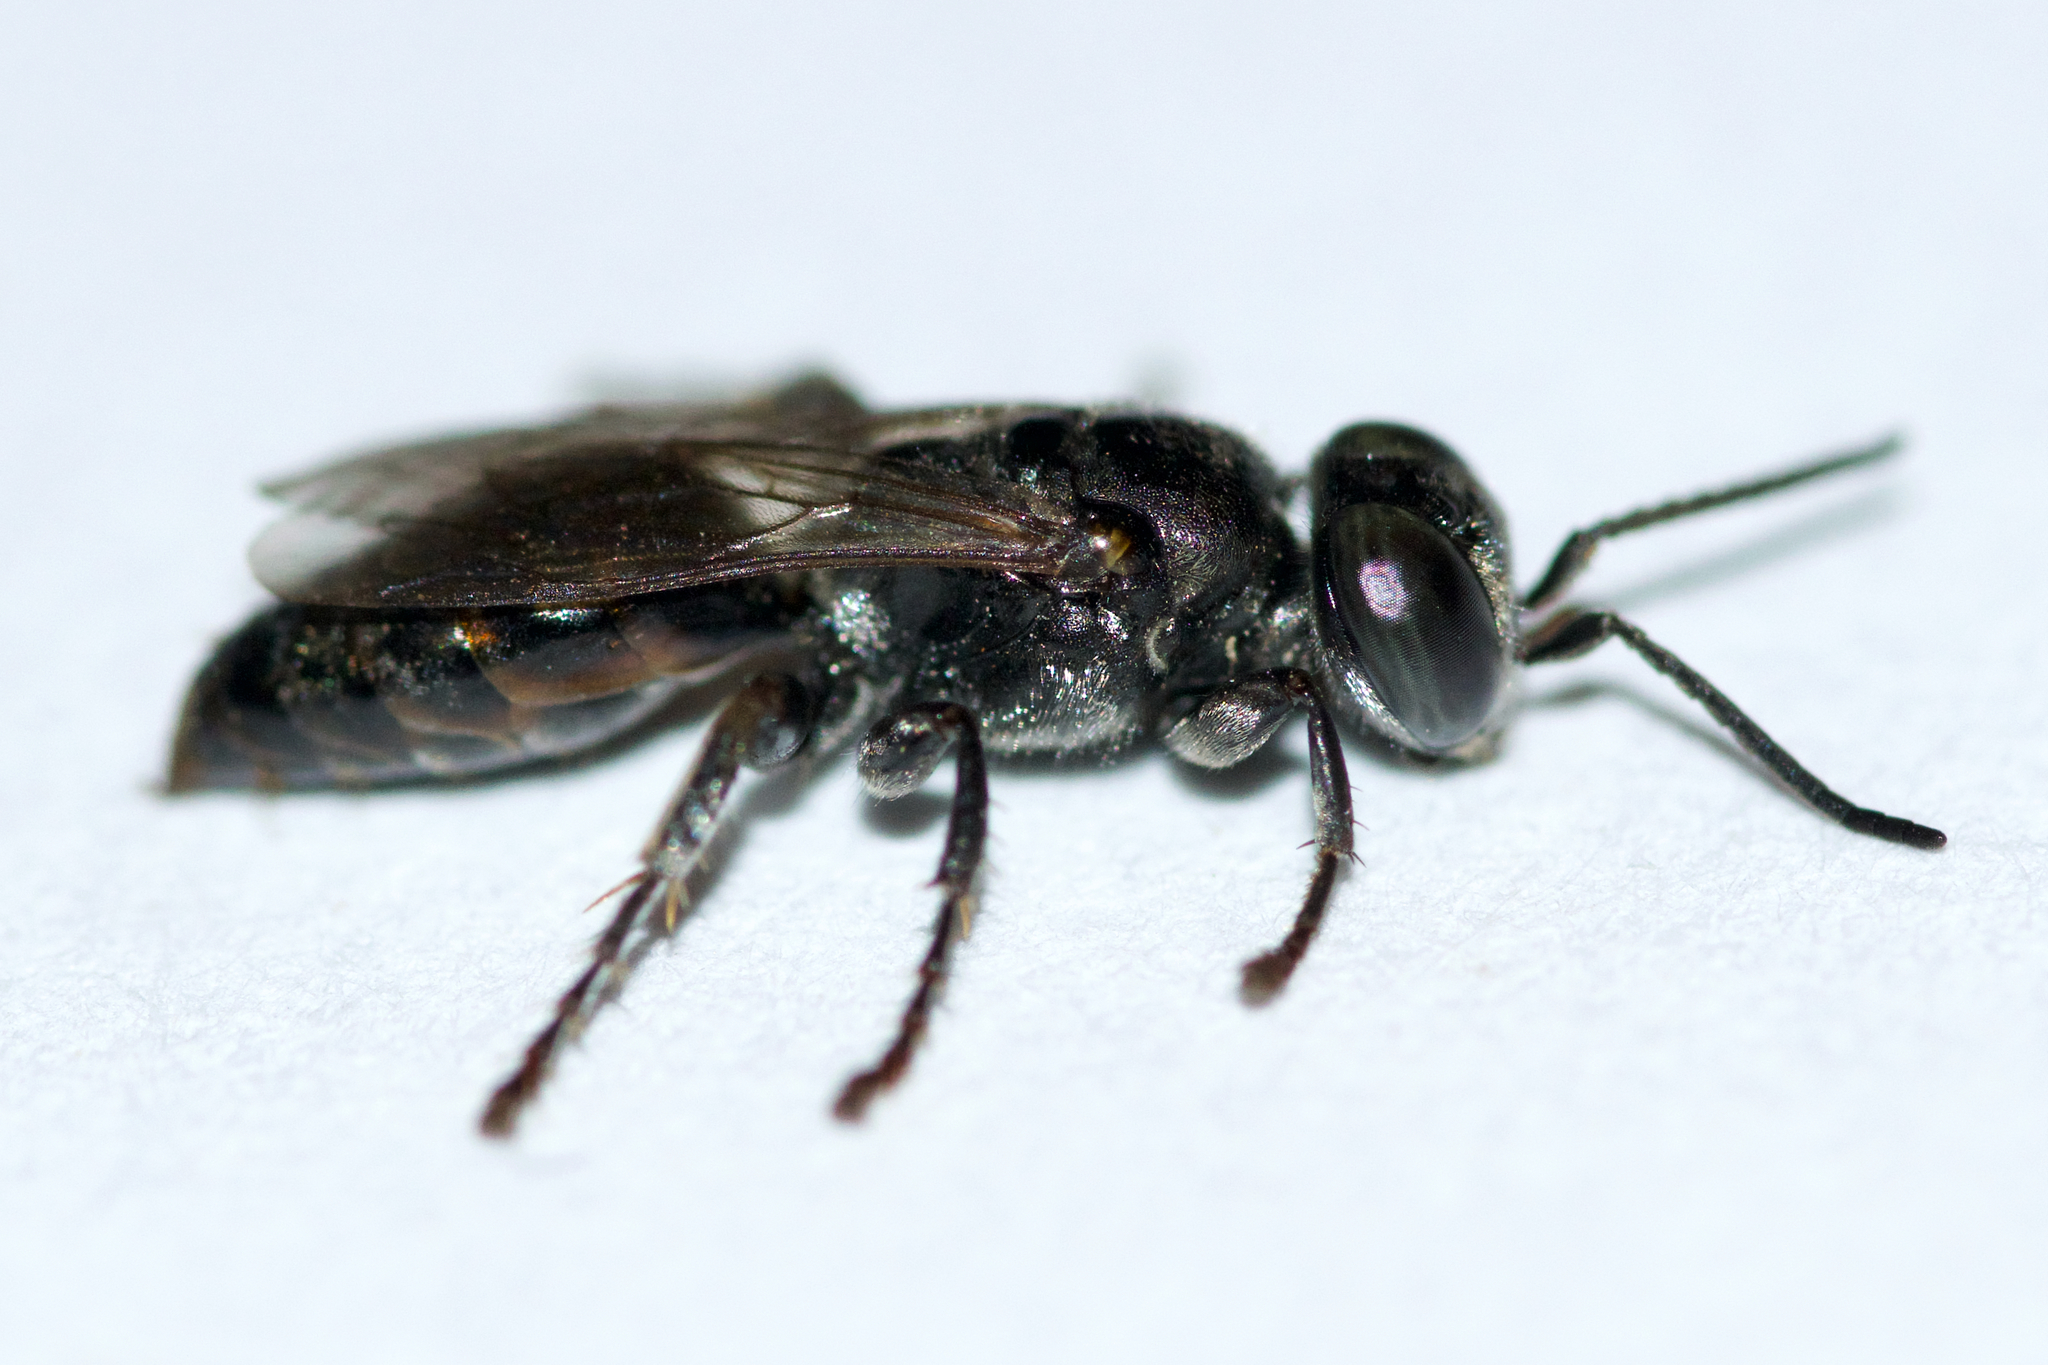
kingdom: Animalia
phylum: Arthropoda
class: Insecta
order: Hymenoptera
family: Crabronidae
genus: Tachytes
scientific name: Tachytes intermedius
